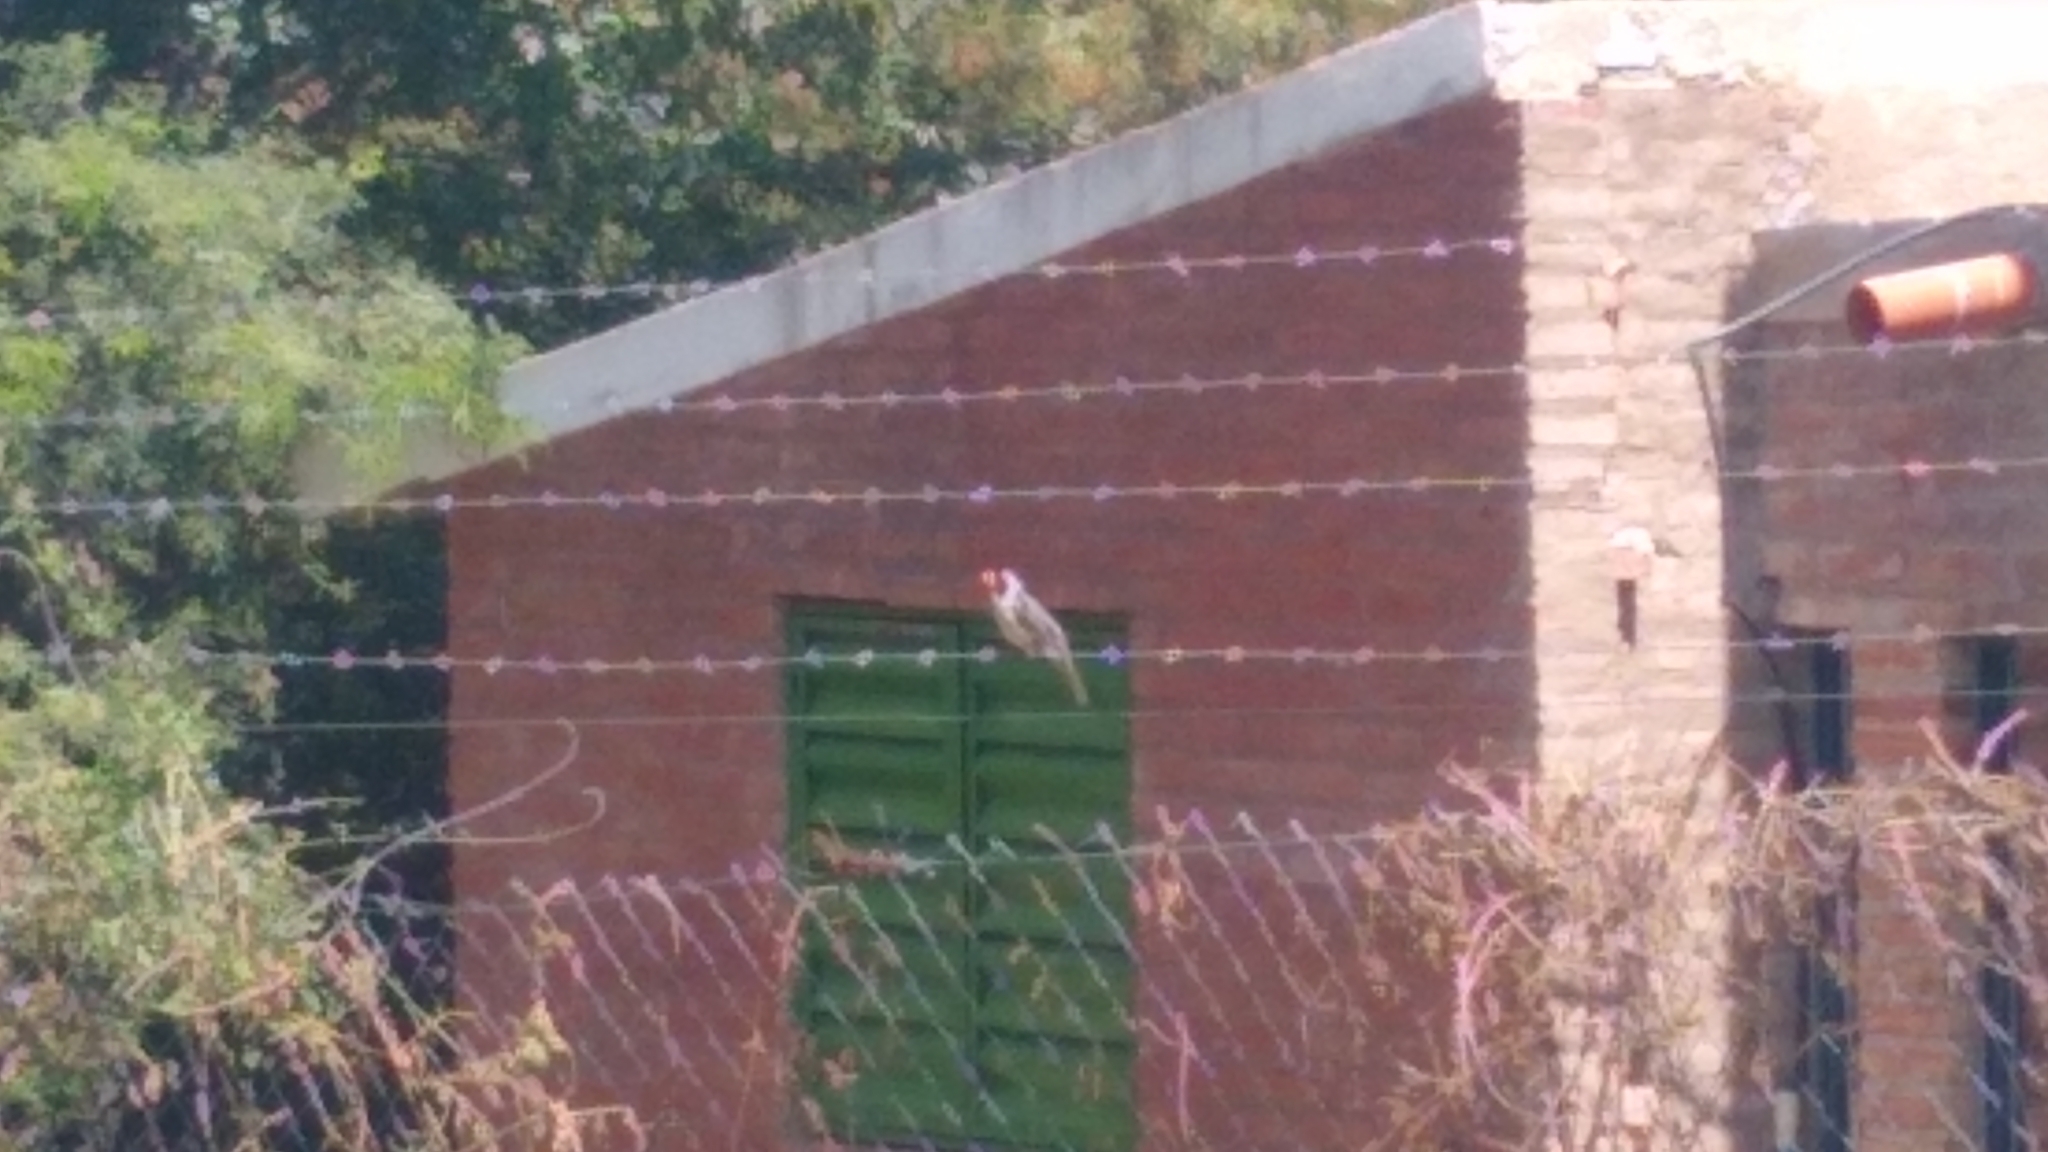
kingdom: Animalia
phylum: Chordata
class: Aves
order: Passeriformes
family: Thraupidae
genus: Saltator
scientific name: Saltator aurantiirostris
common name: Golden-billed saltator
